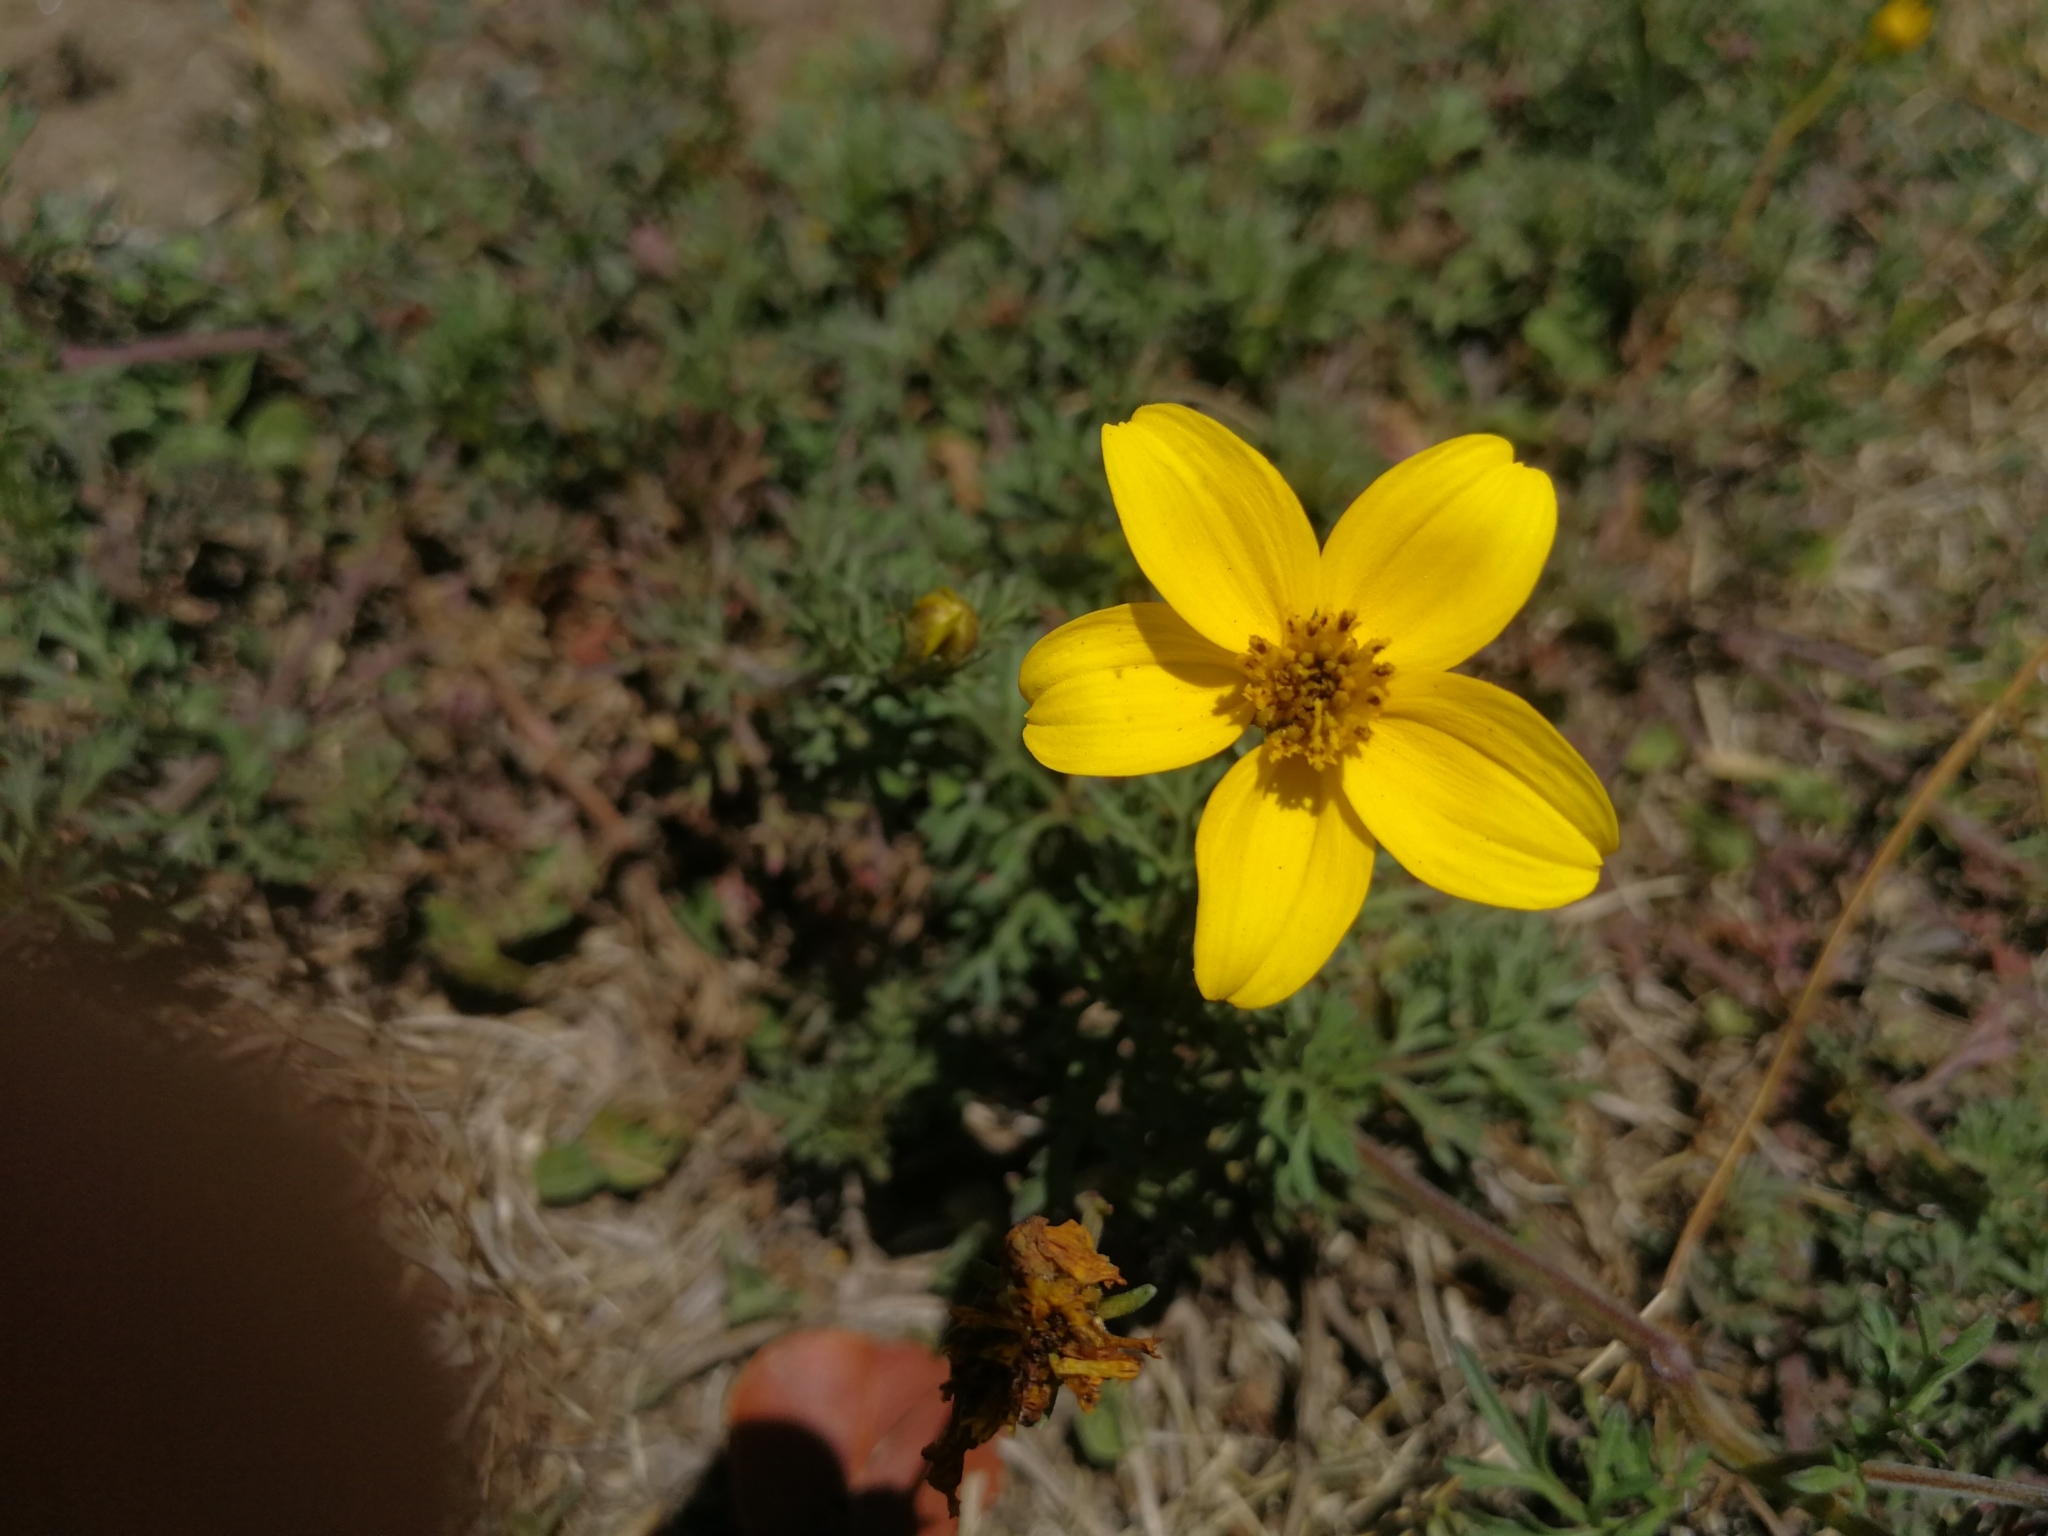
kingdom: Plantae
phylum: Tracheophyta
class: Magnoliopsida
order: Asterales
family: Asteraceae
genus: Bidens
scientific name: Bidens andicola
